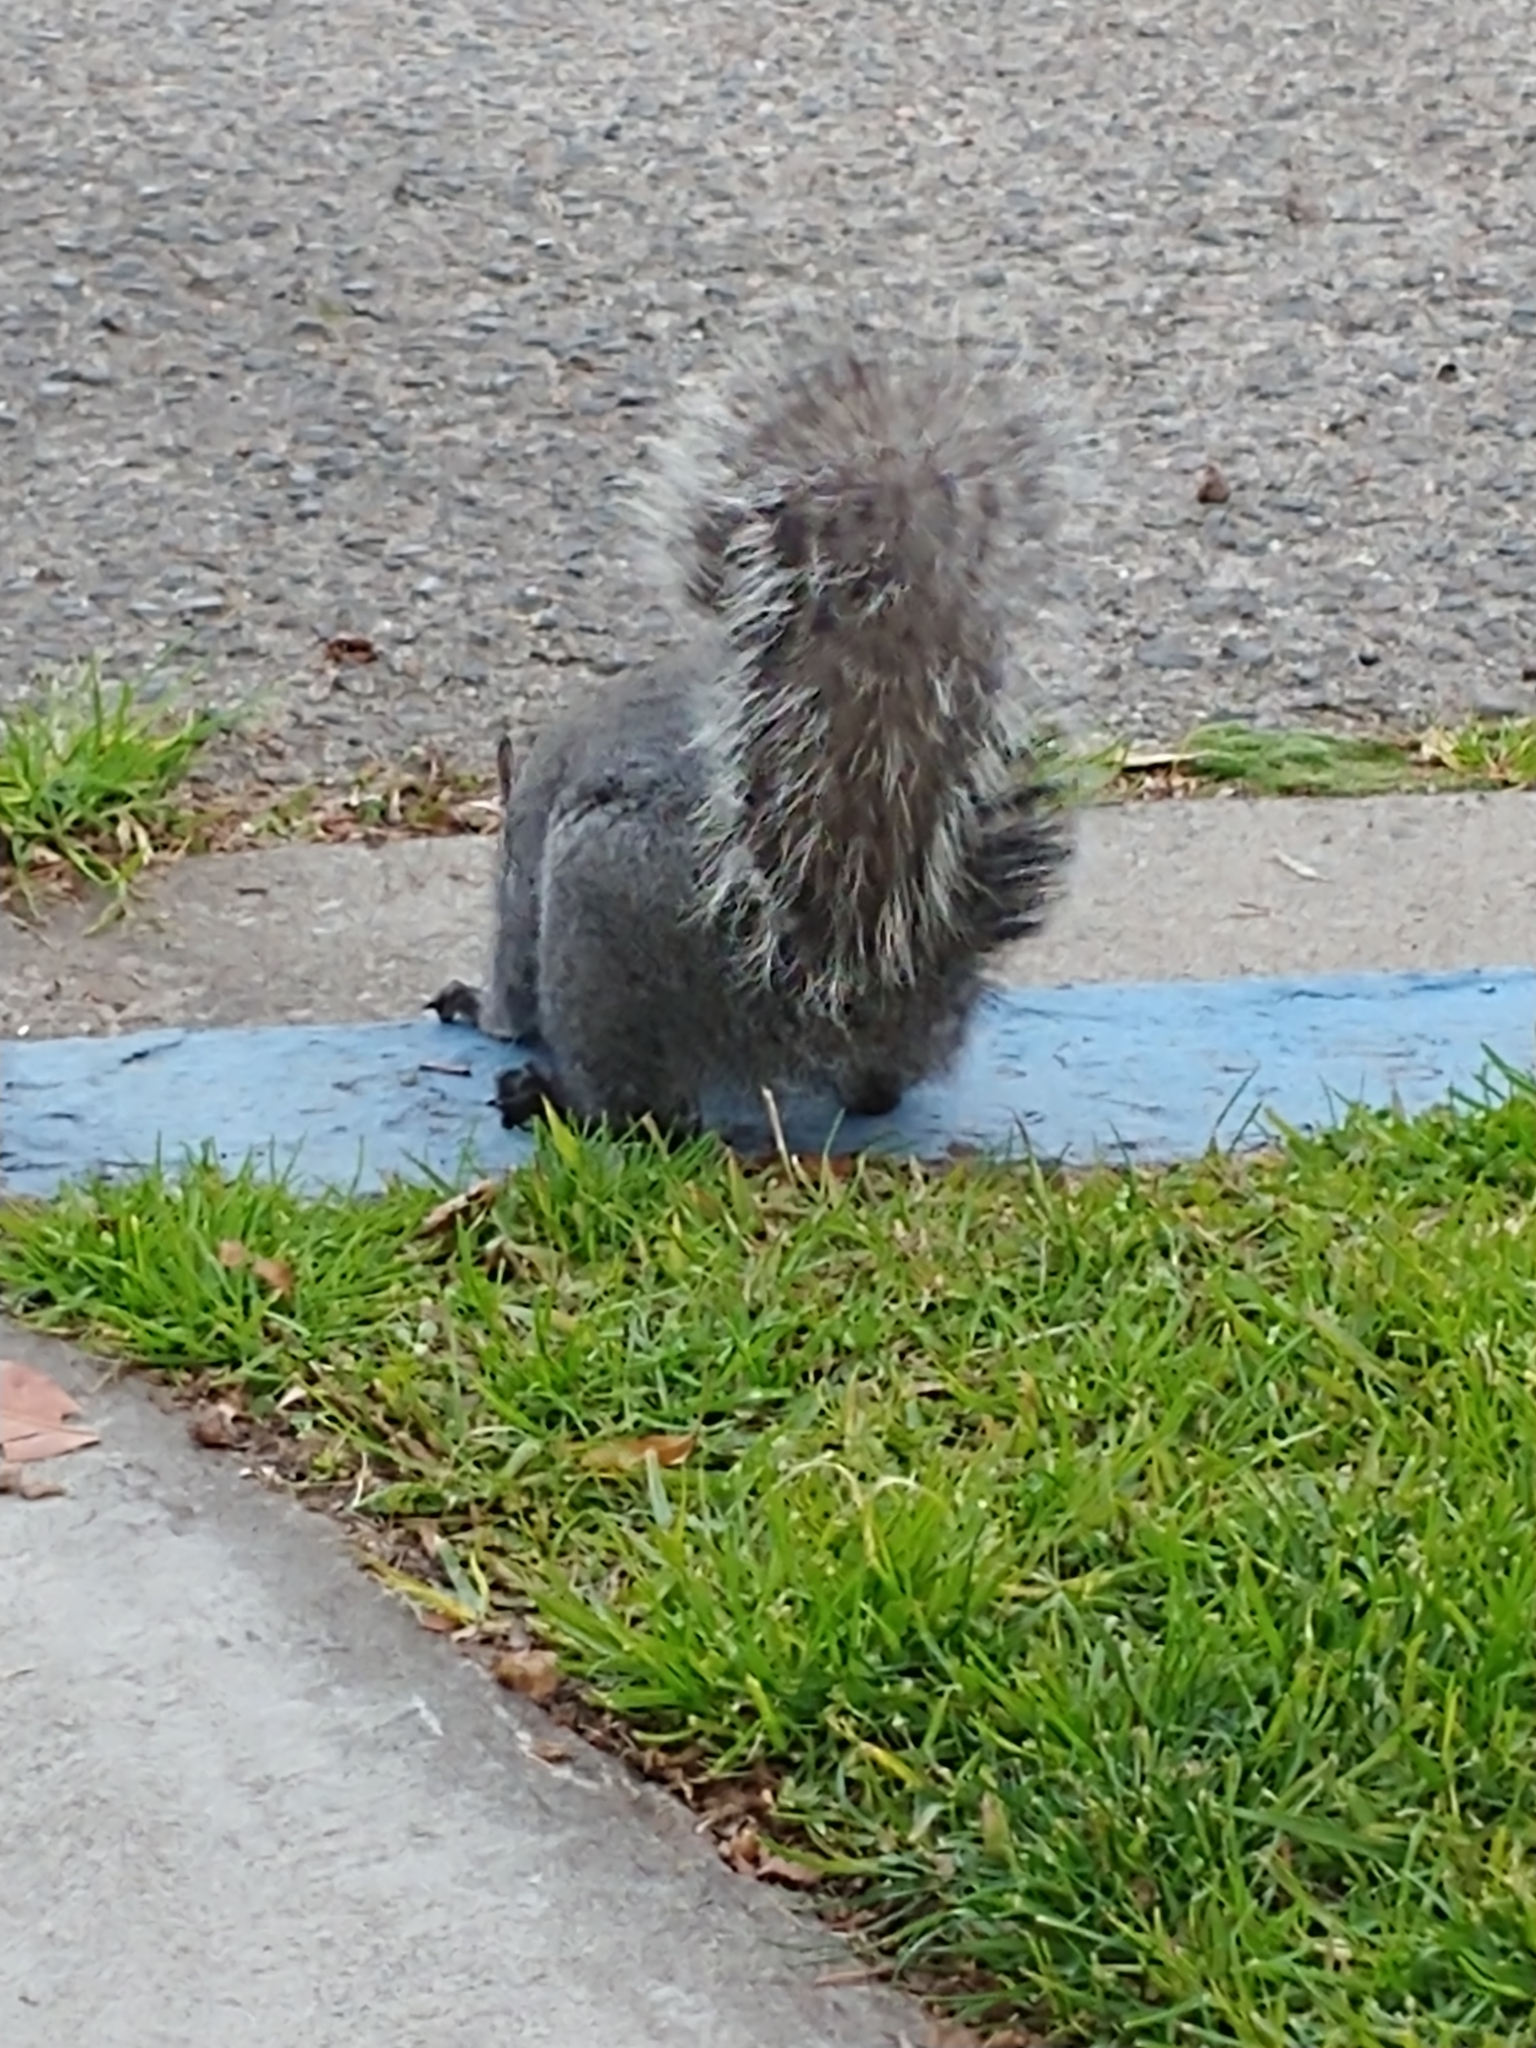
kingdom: Animalia
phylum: Chordata
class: Mammalia
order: Rodentia
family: Sciuridae
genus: Sciurus
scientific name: Sciurus griseus
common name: Western gray squirrel
